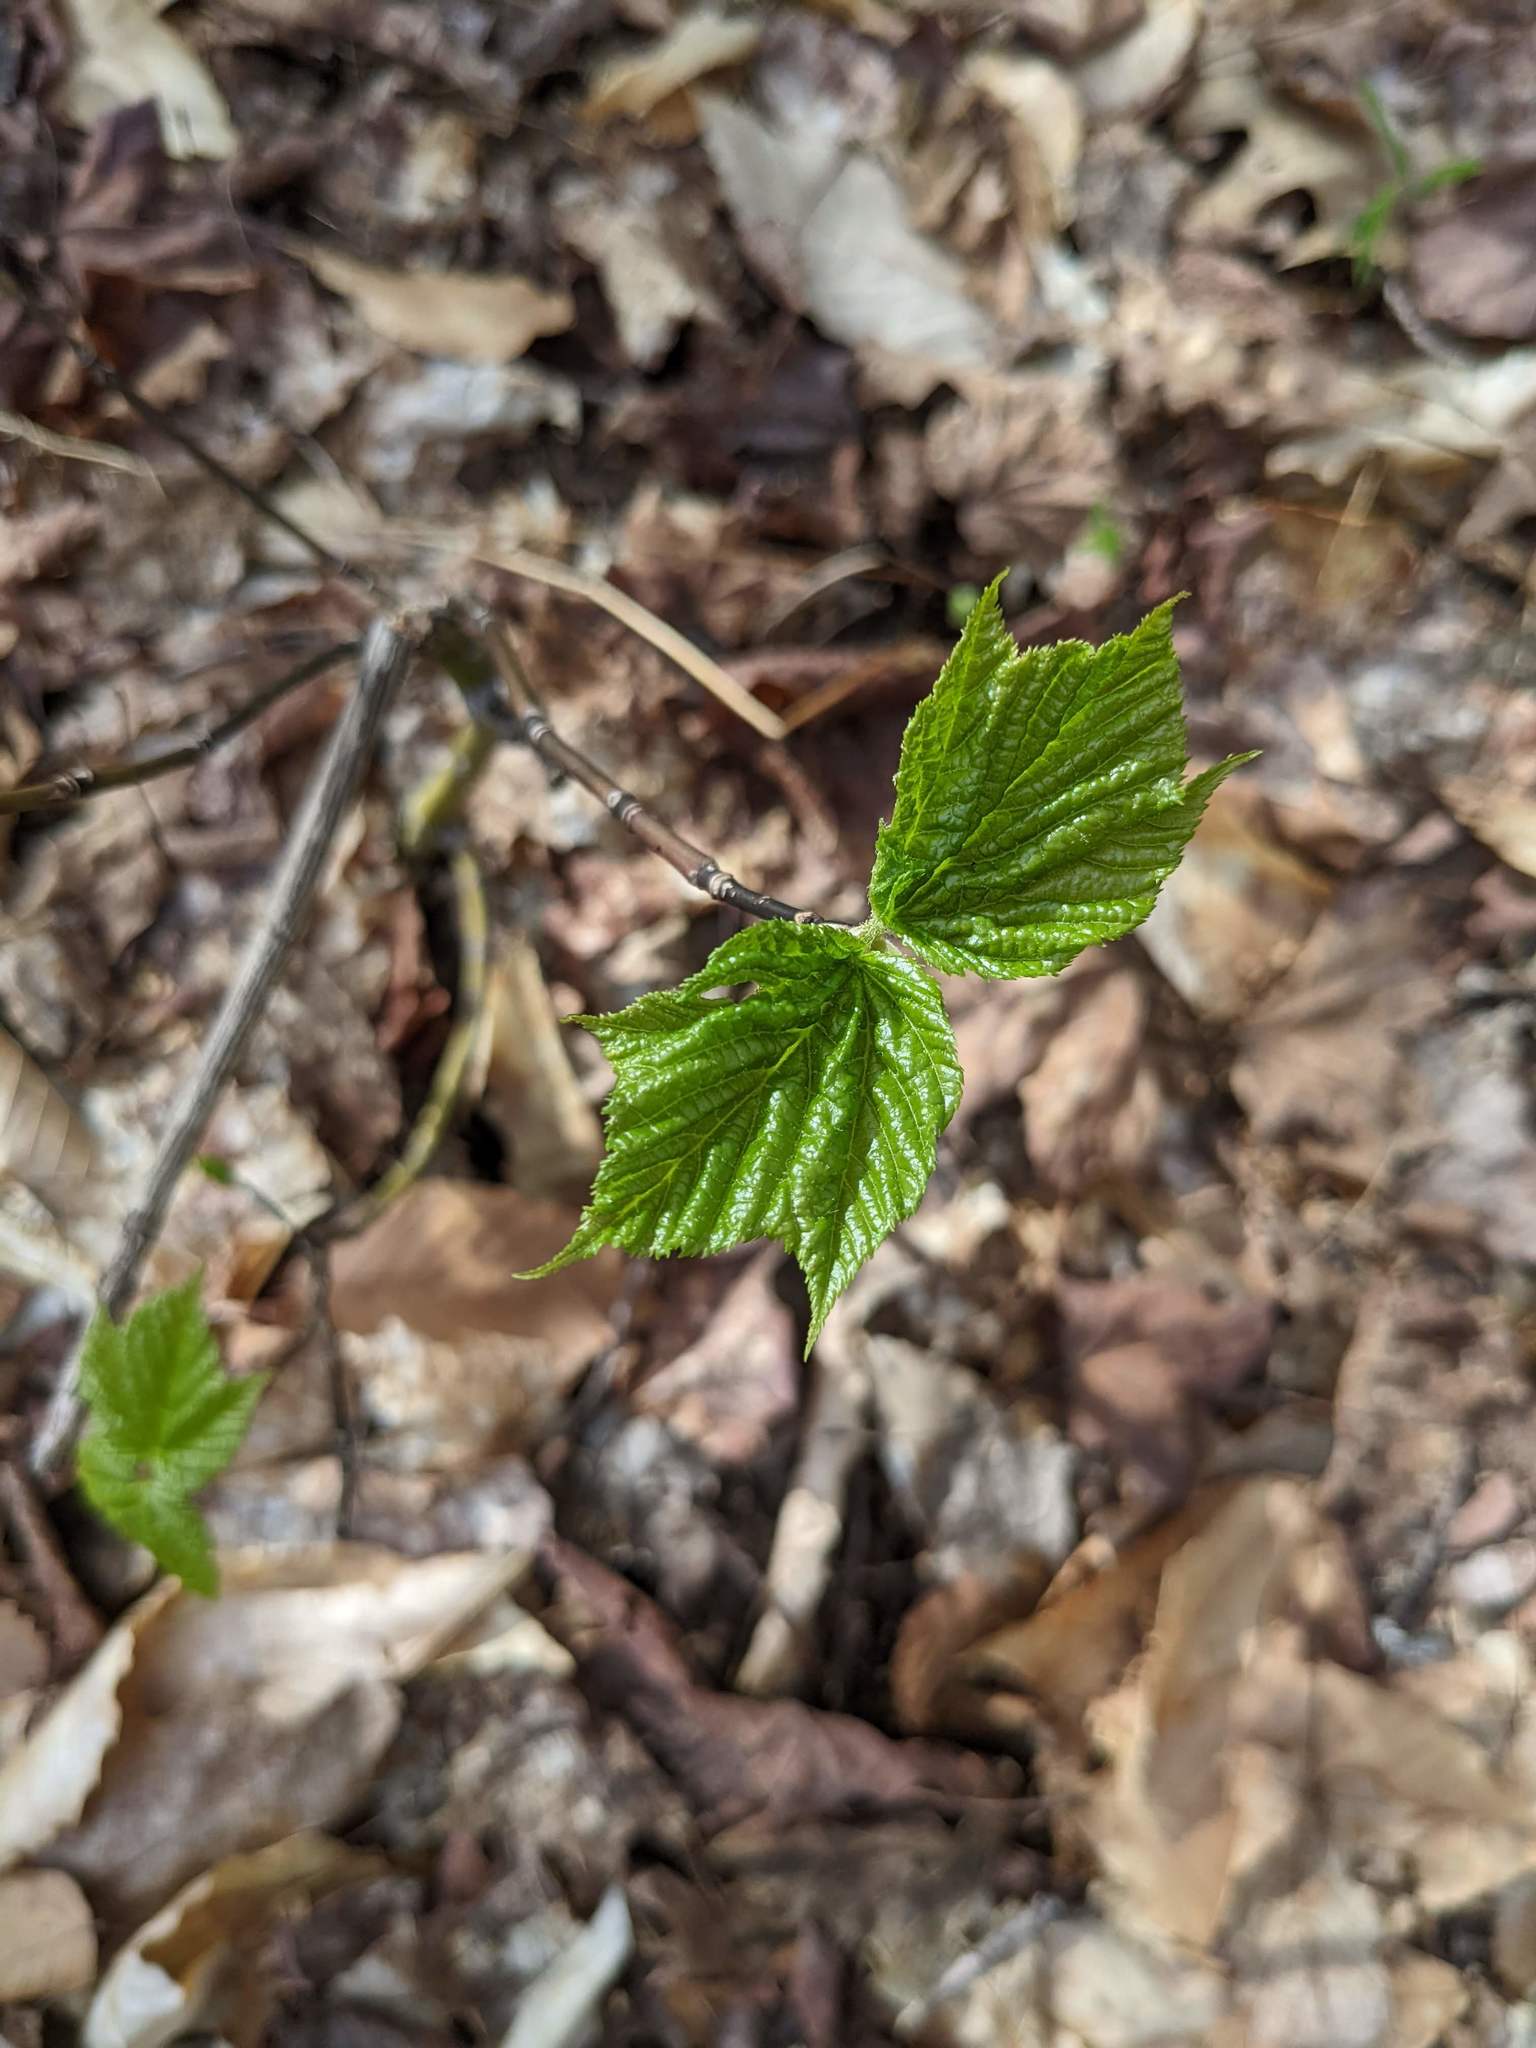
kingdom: Plantae
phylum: Tracheophyta
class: Magnoliopsida
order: Sapindales
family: Sapindaceae
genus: Acer
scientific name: Acer pensylvanicum
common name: Moosewood
